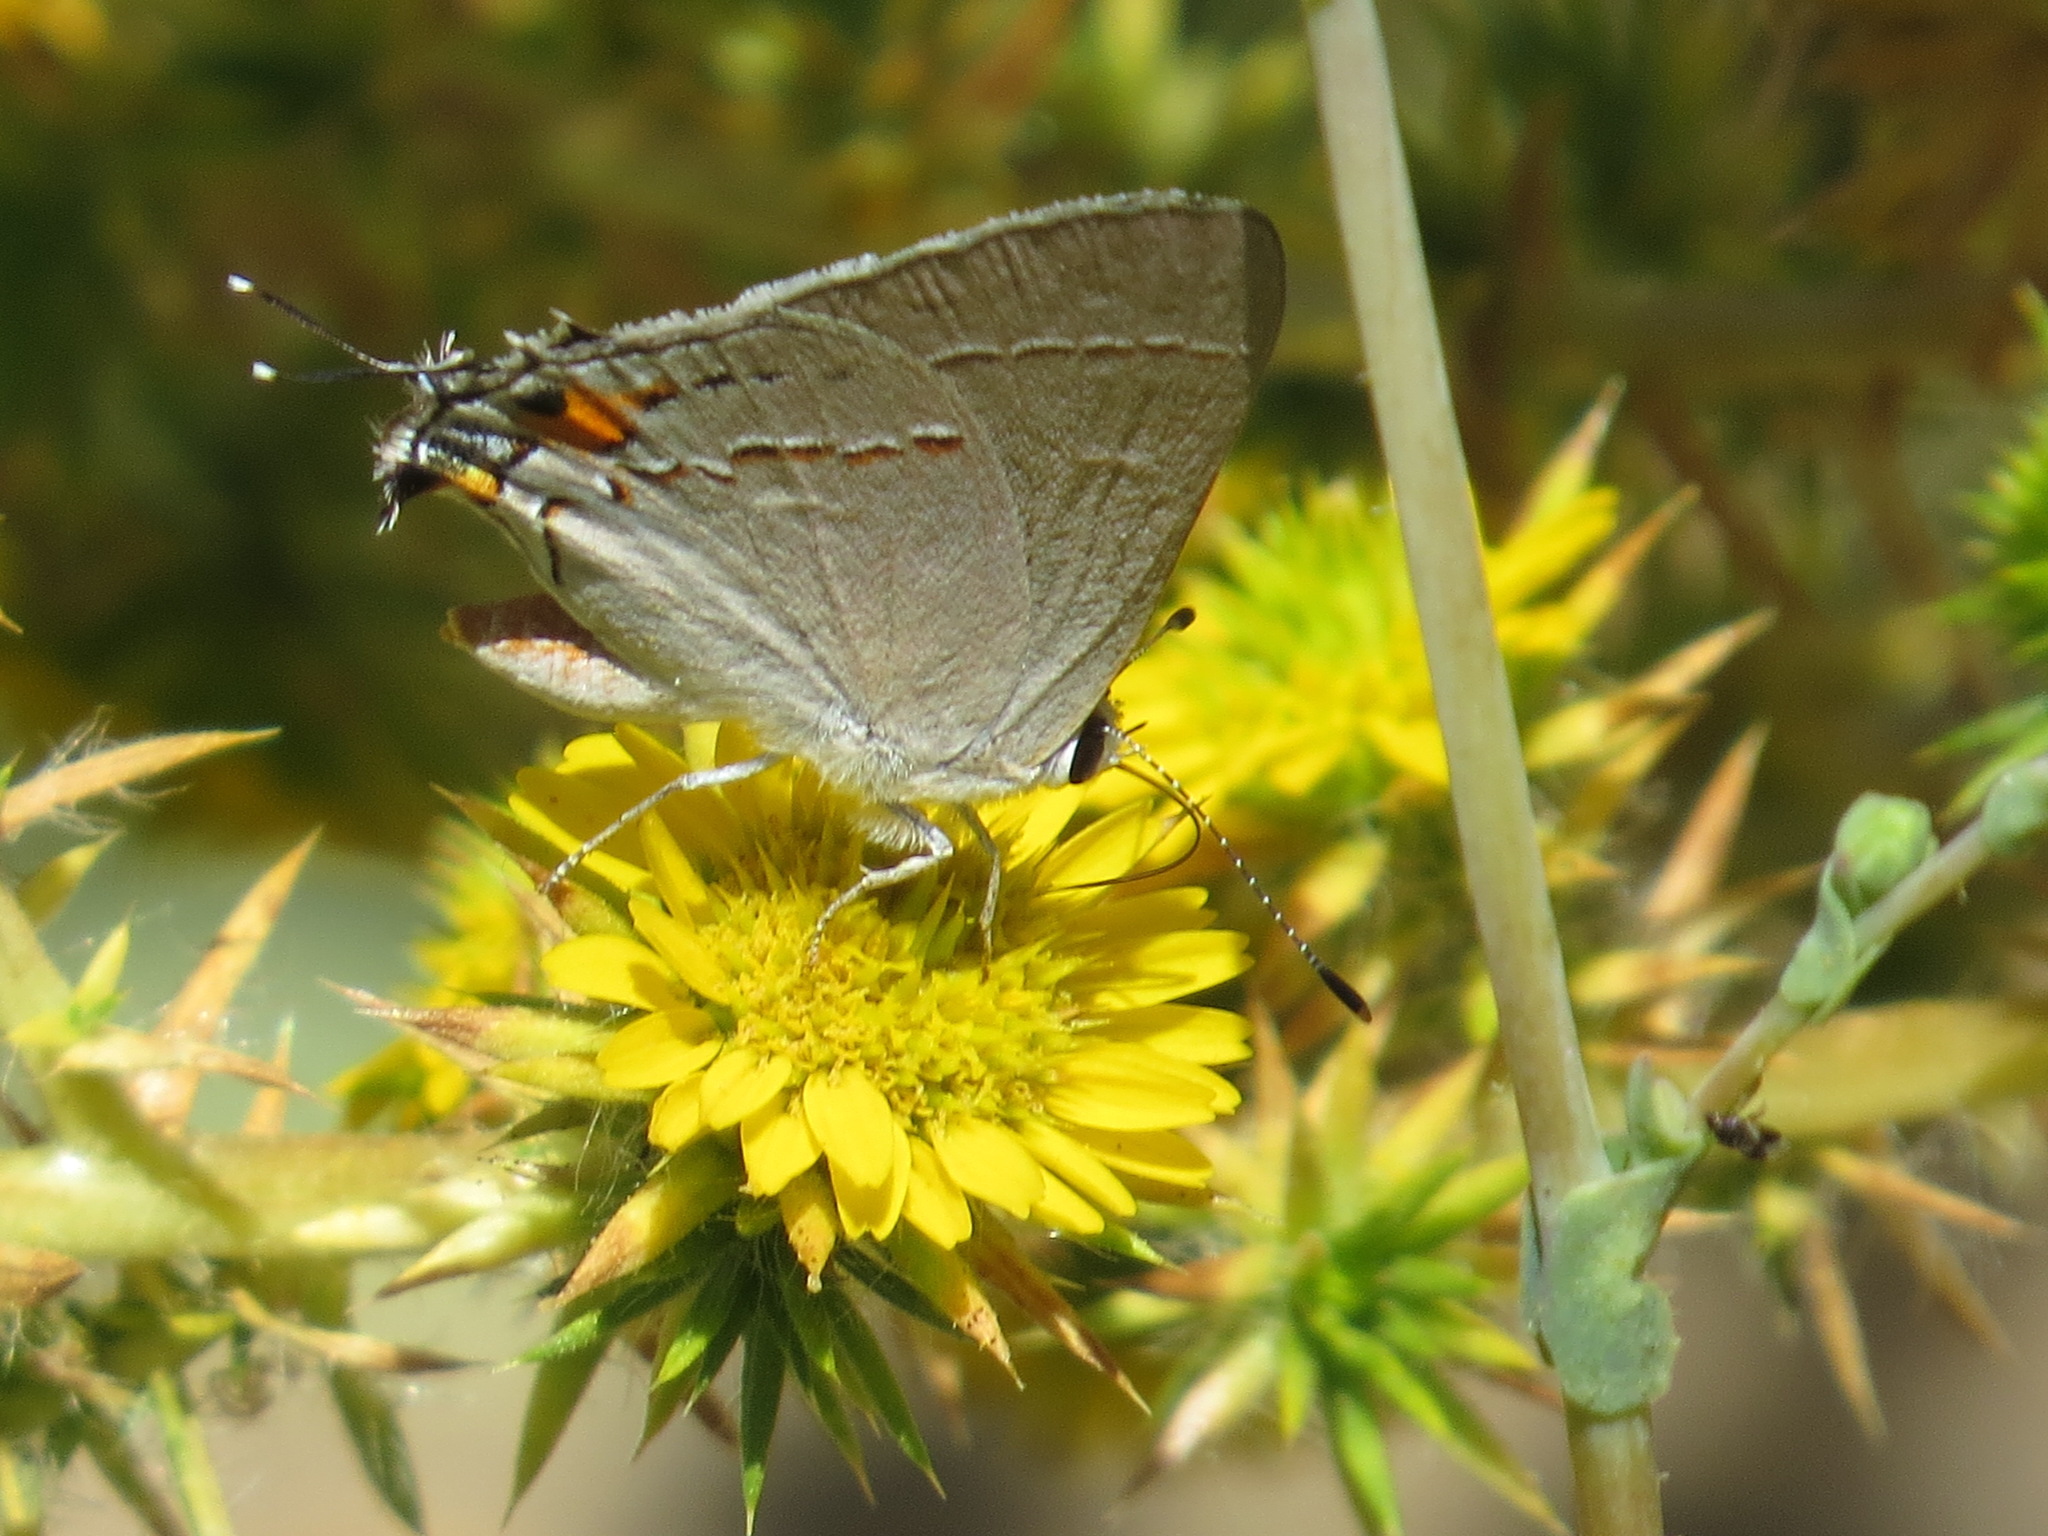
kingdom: Animalia
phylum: Arthropoda
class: Insecta
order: Lepidoptera
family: Lycaenidae
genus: Strymon
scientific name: Strymon melinus
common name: Gray hairstreak
